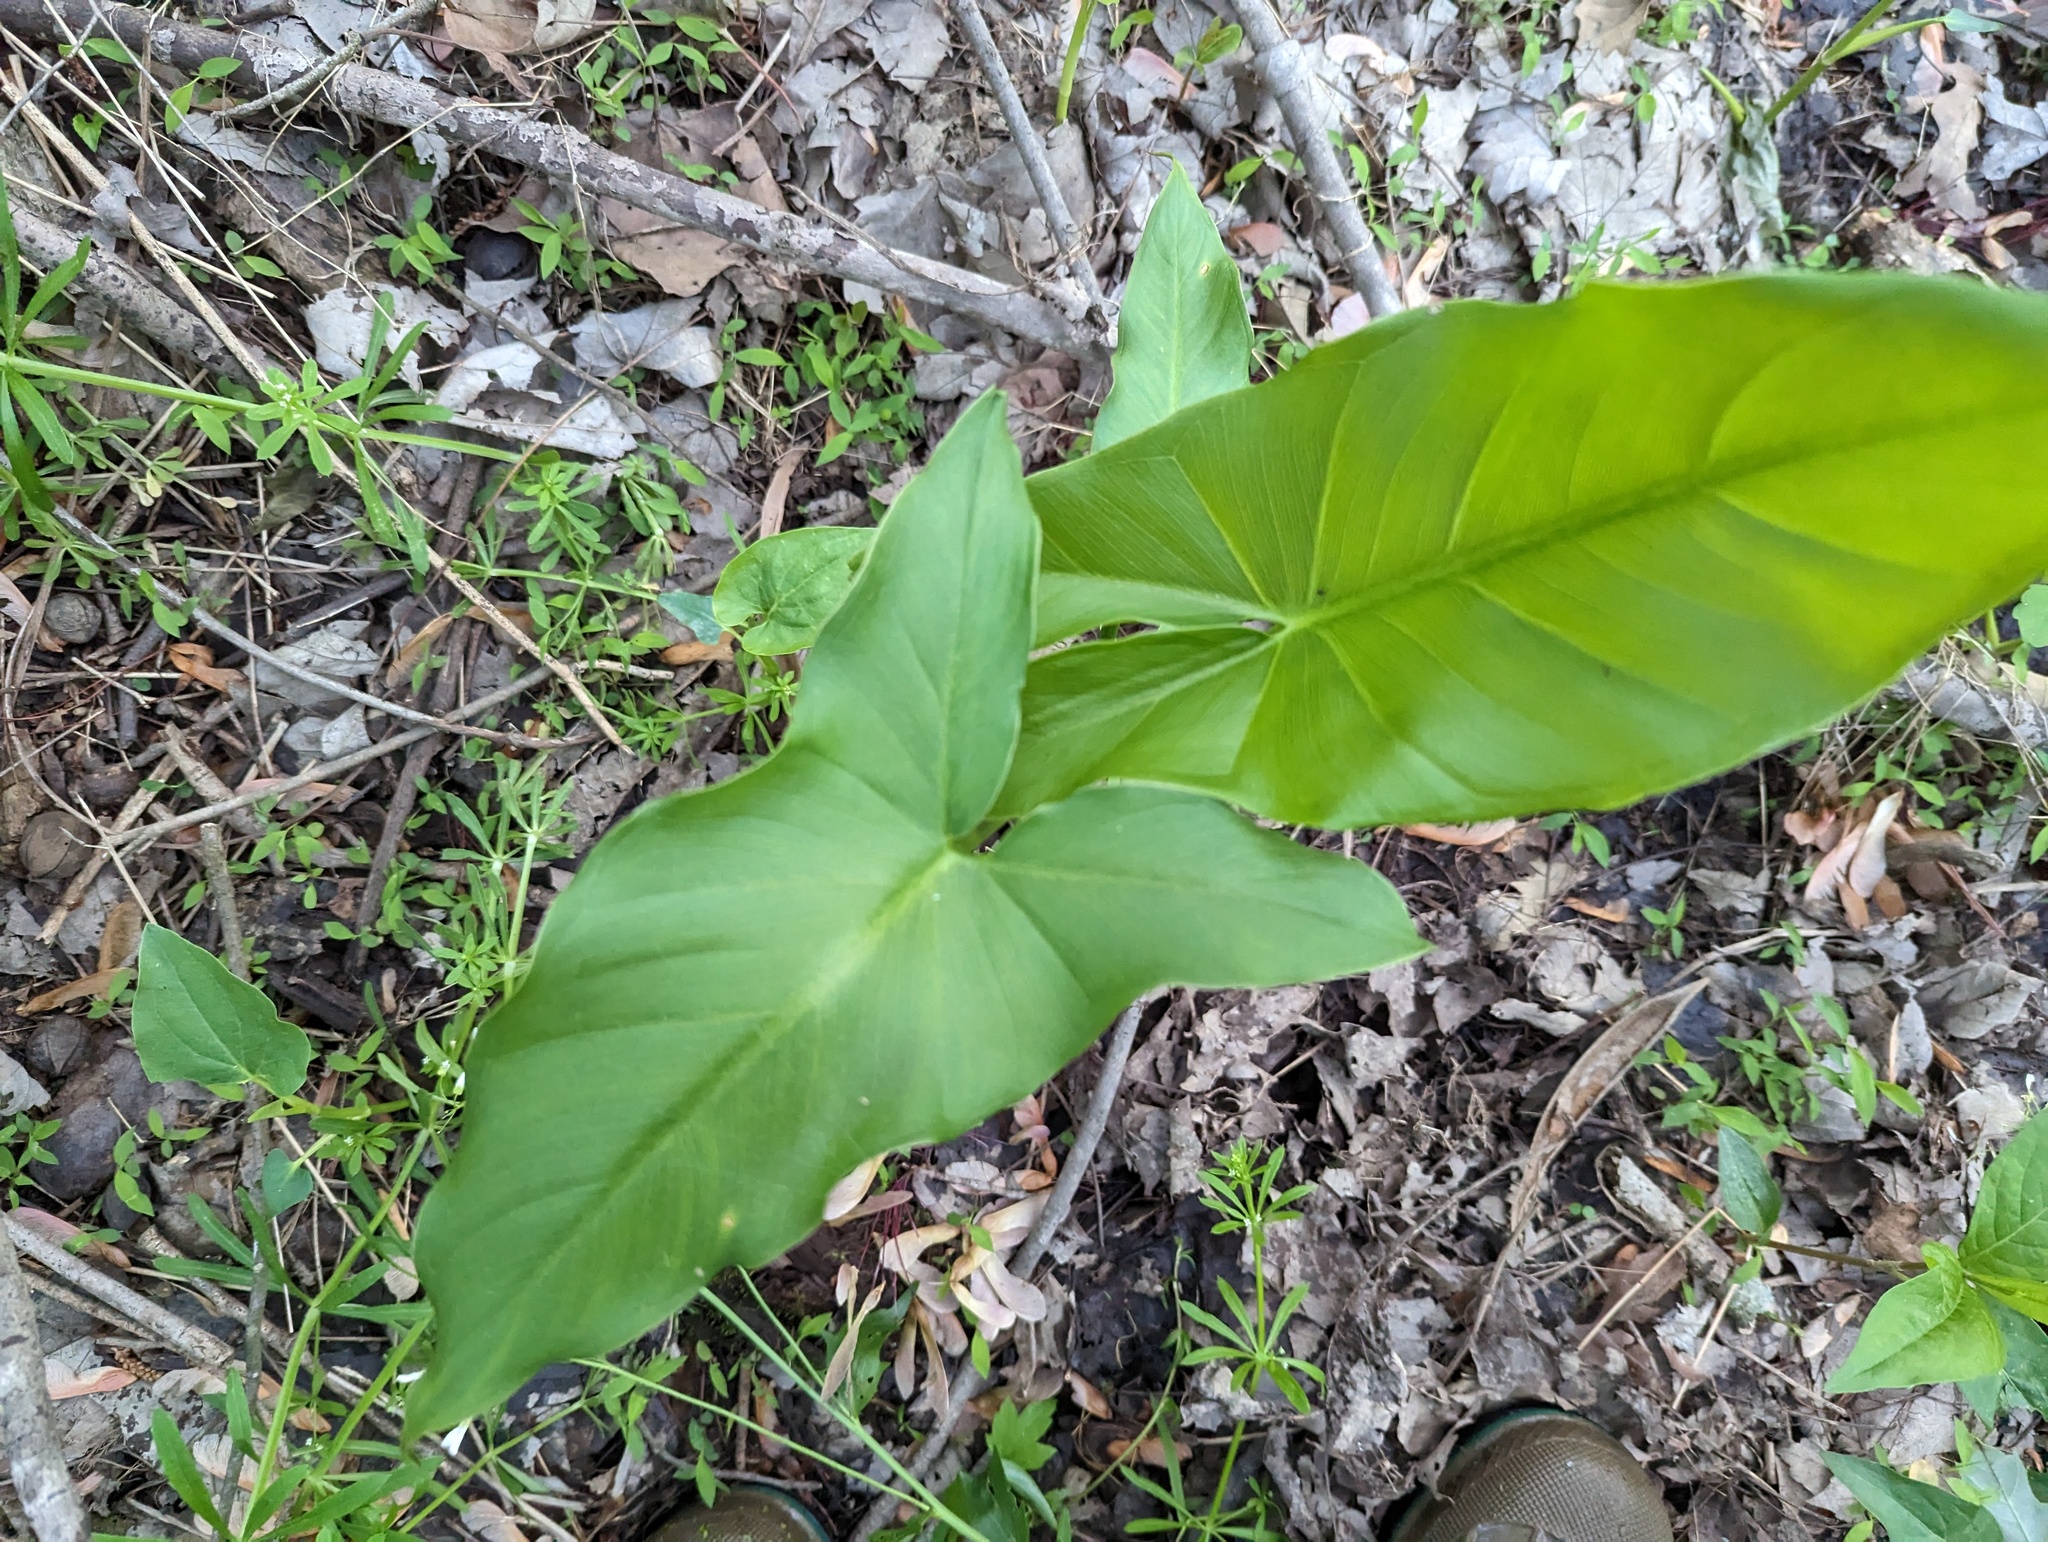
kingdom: Plantae
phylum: Tracheophyta
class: Liliopsida
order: Alismatales
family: Araceae
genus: Peltandra
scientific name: Peltandra virginica
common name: Arrow arum
